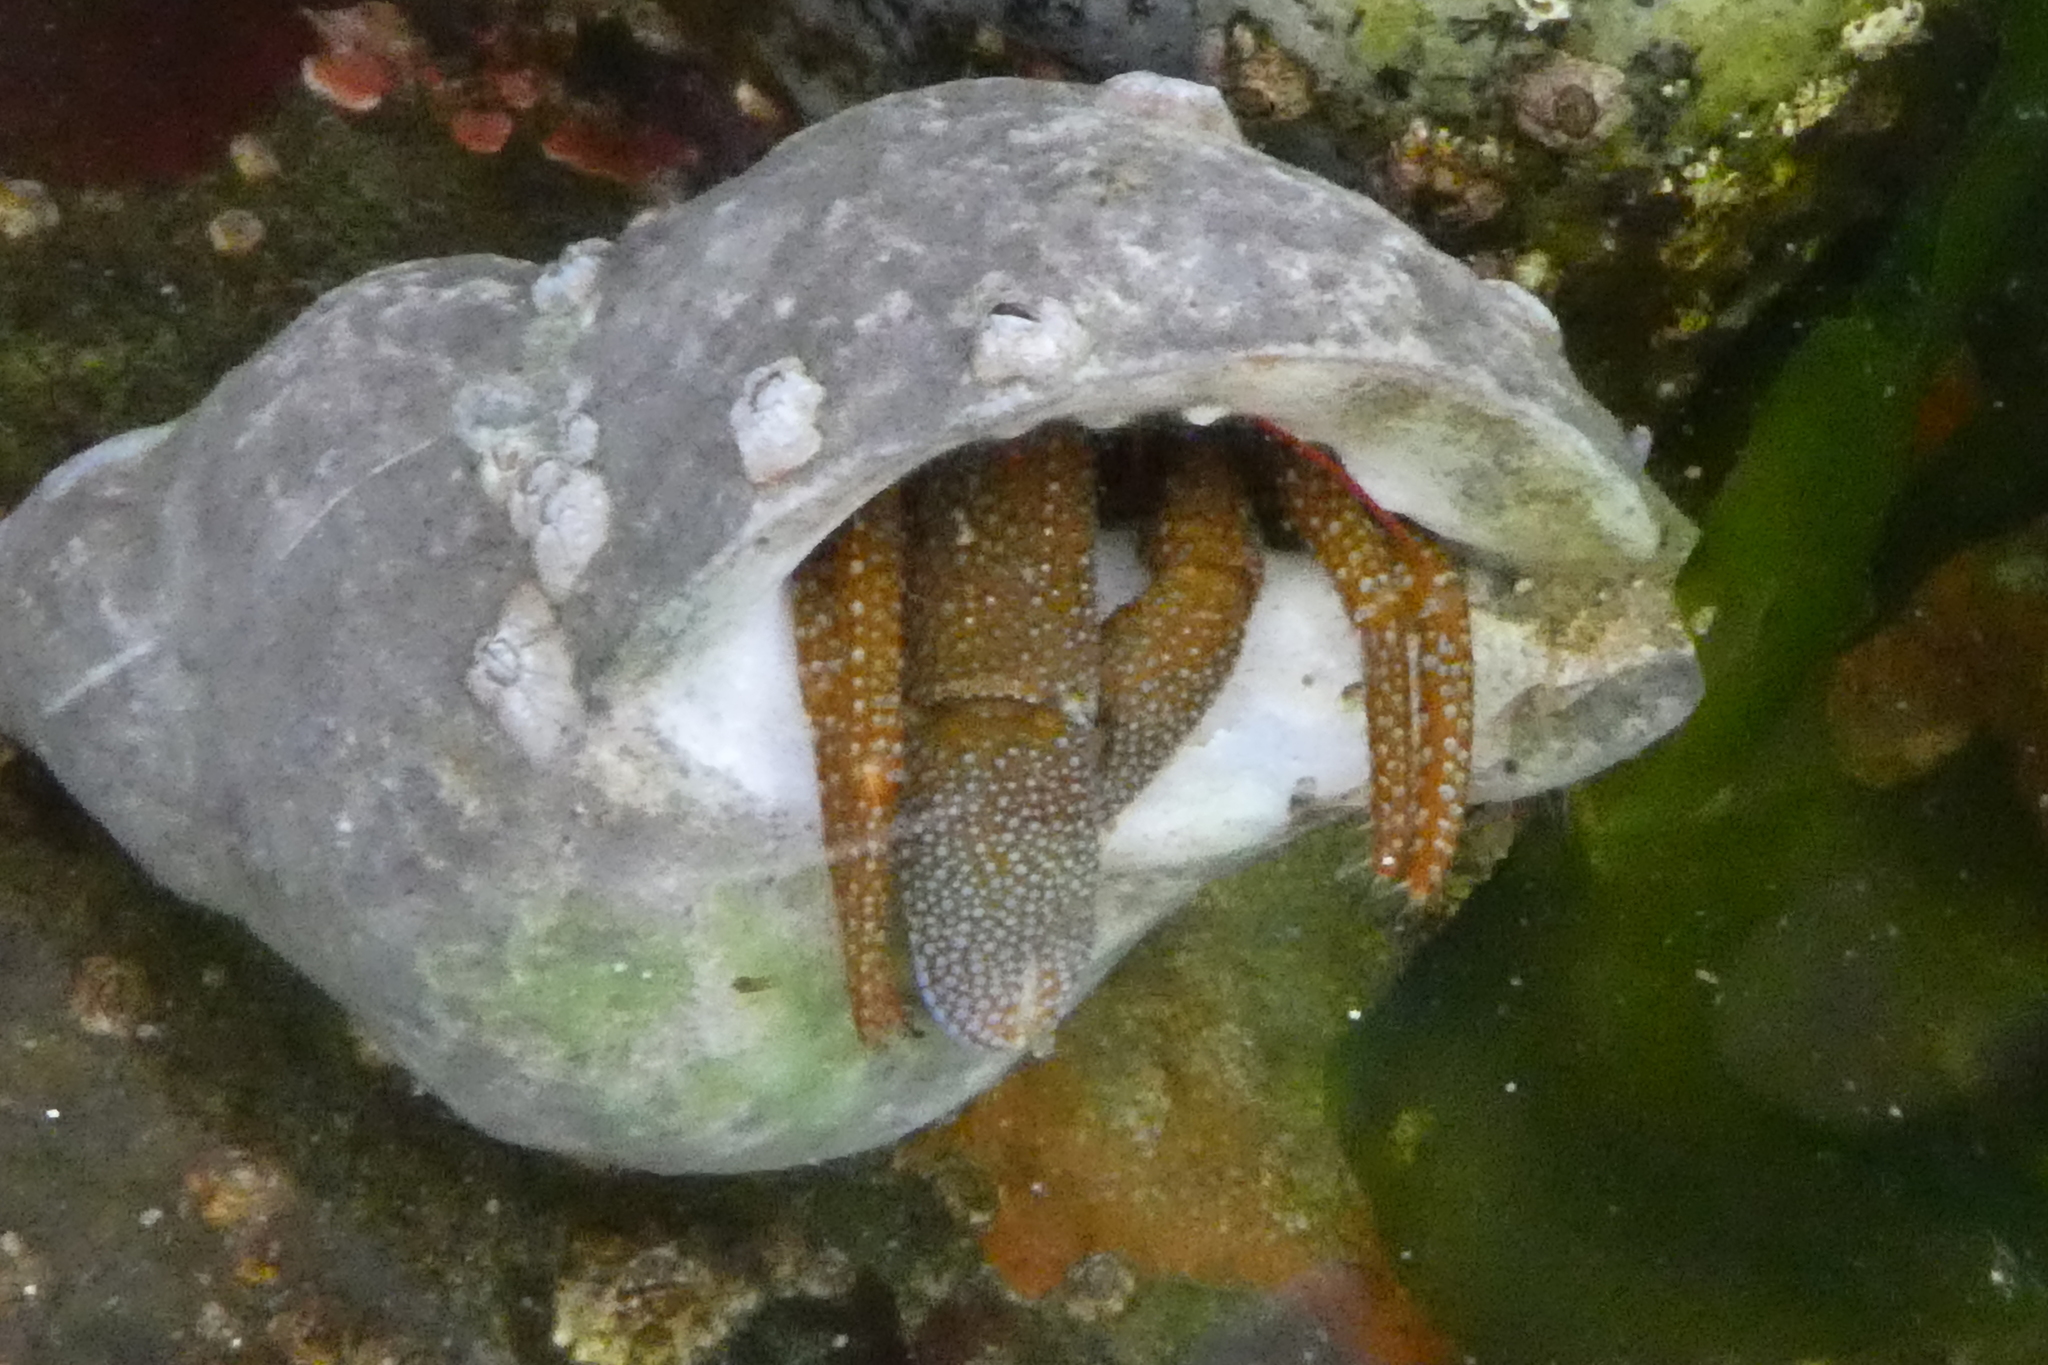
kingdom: Animalia
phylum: Arthropoda
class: Malacostraca
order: Decapoda
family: Paguridae
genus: Pagurus
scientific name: Pagurus granosimanus
